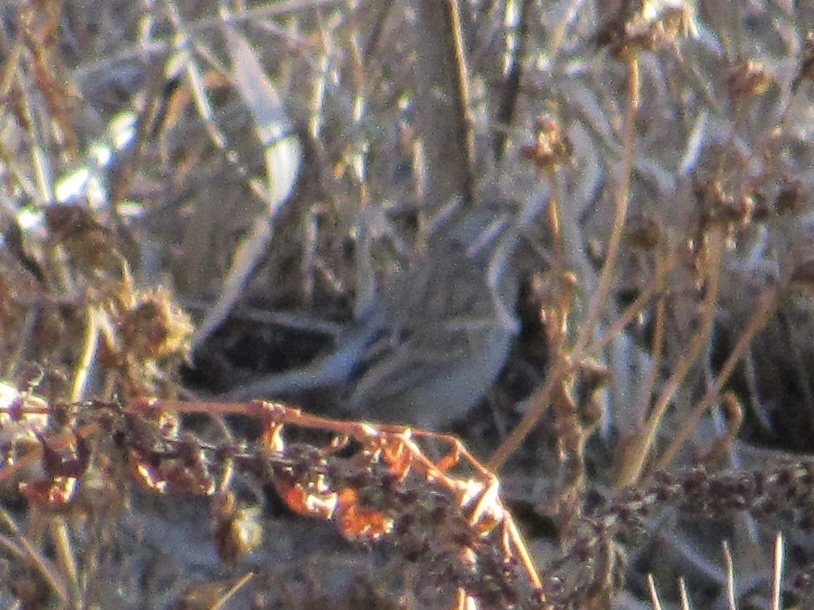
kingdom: Animalia
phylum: Chordata
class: Aves
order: Passeriformes
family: Passerellidae
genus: Spizella
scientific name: Spizella passerina
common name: Chipping sparrow
